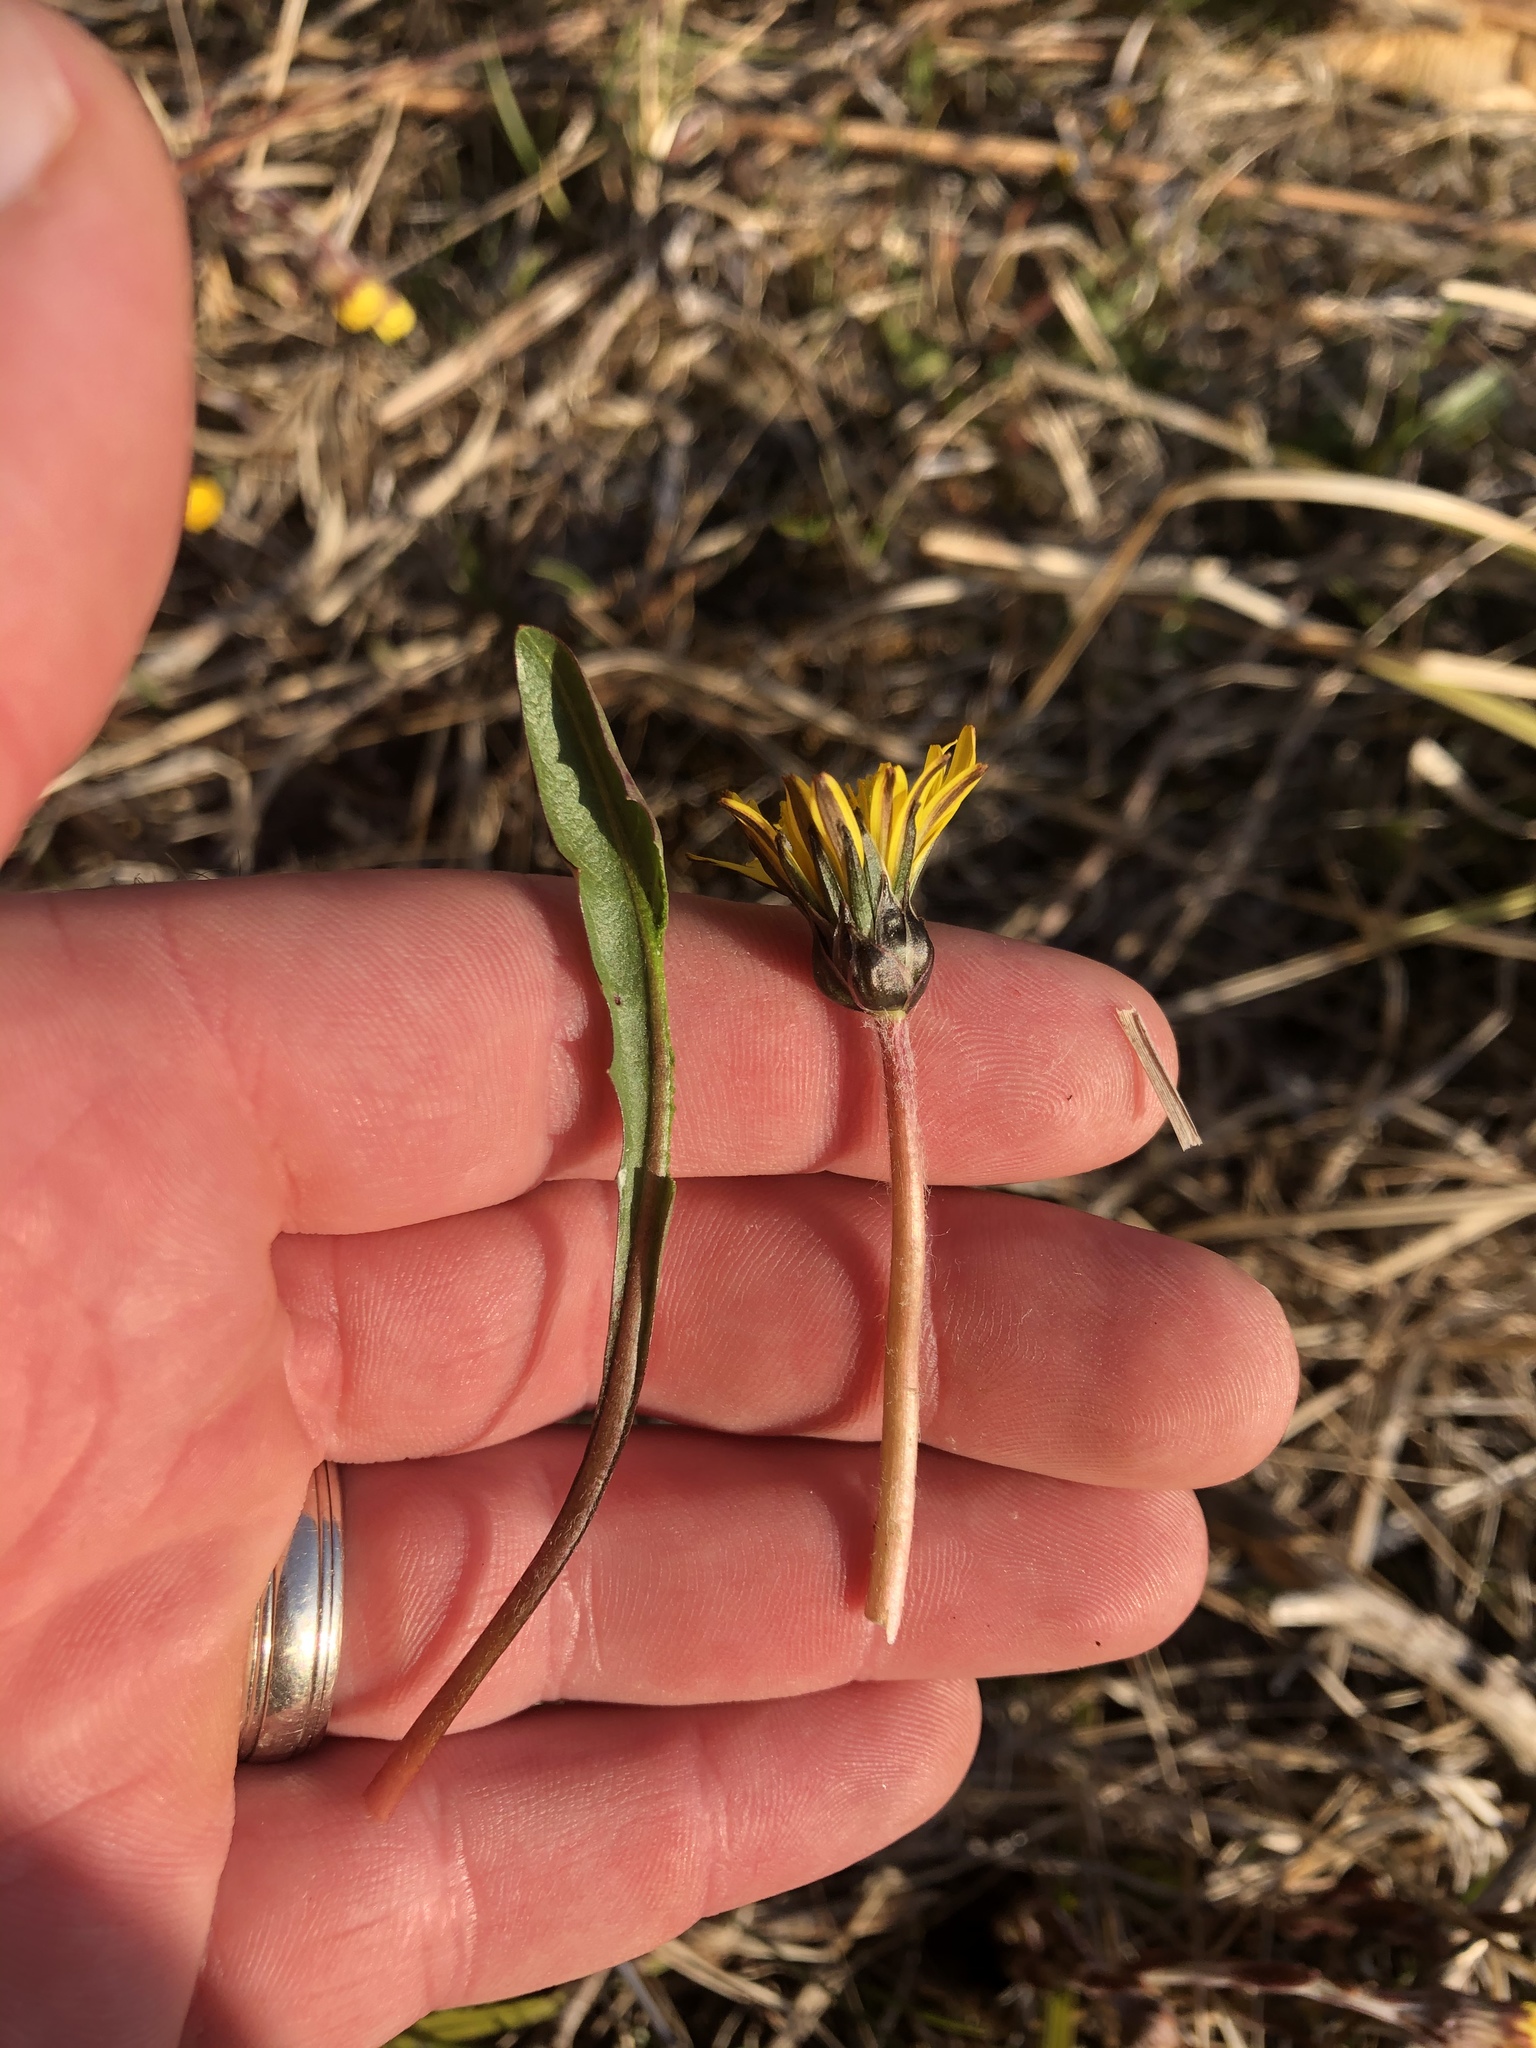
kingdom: Plantae
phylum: Tracheophyta
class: Magnoliopsida
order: Asterales
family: Asteraceae
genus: Taraxacum
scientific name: Taraxacum palustre
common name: Marsh dandelion
